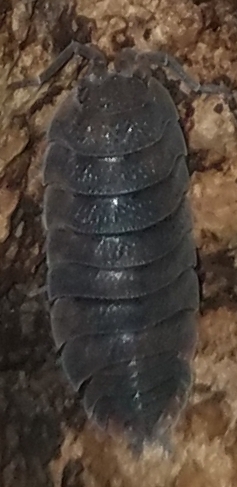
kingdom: Animalia
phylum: Arthropoda
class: Malacostraca
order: Isopoda
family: Porcellionidae
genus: Porcellio
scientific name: Porcellio scaber
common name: Common rough woodlouse
